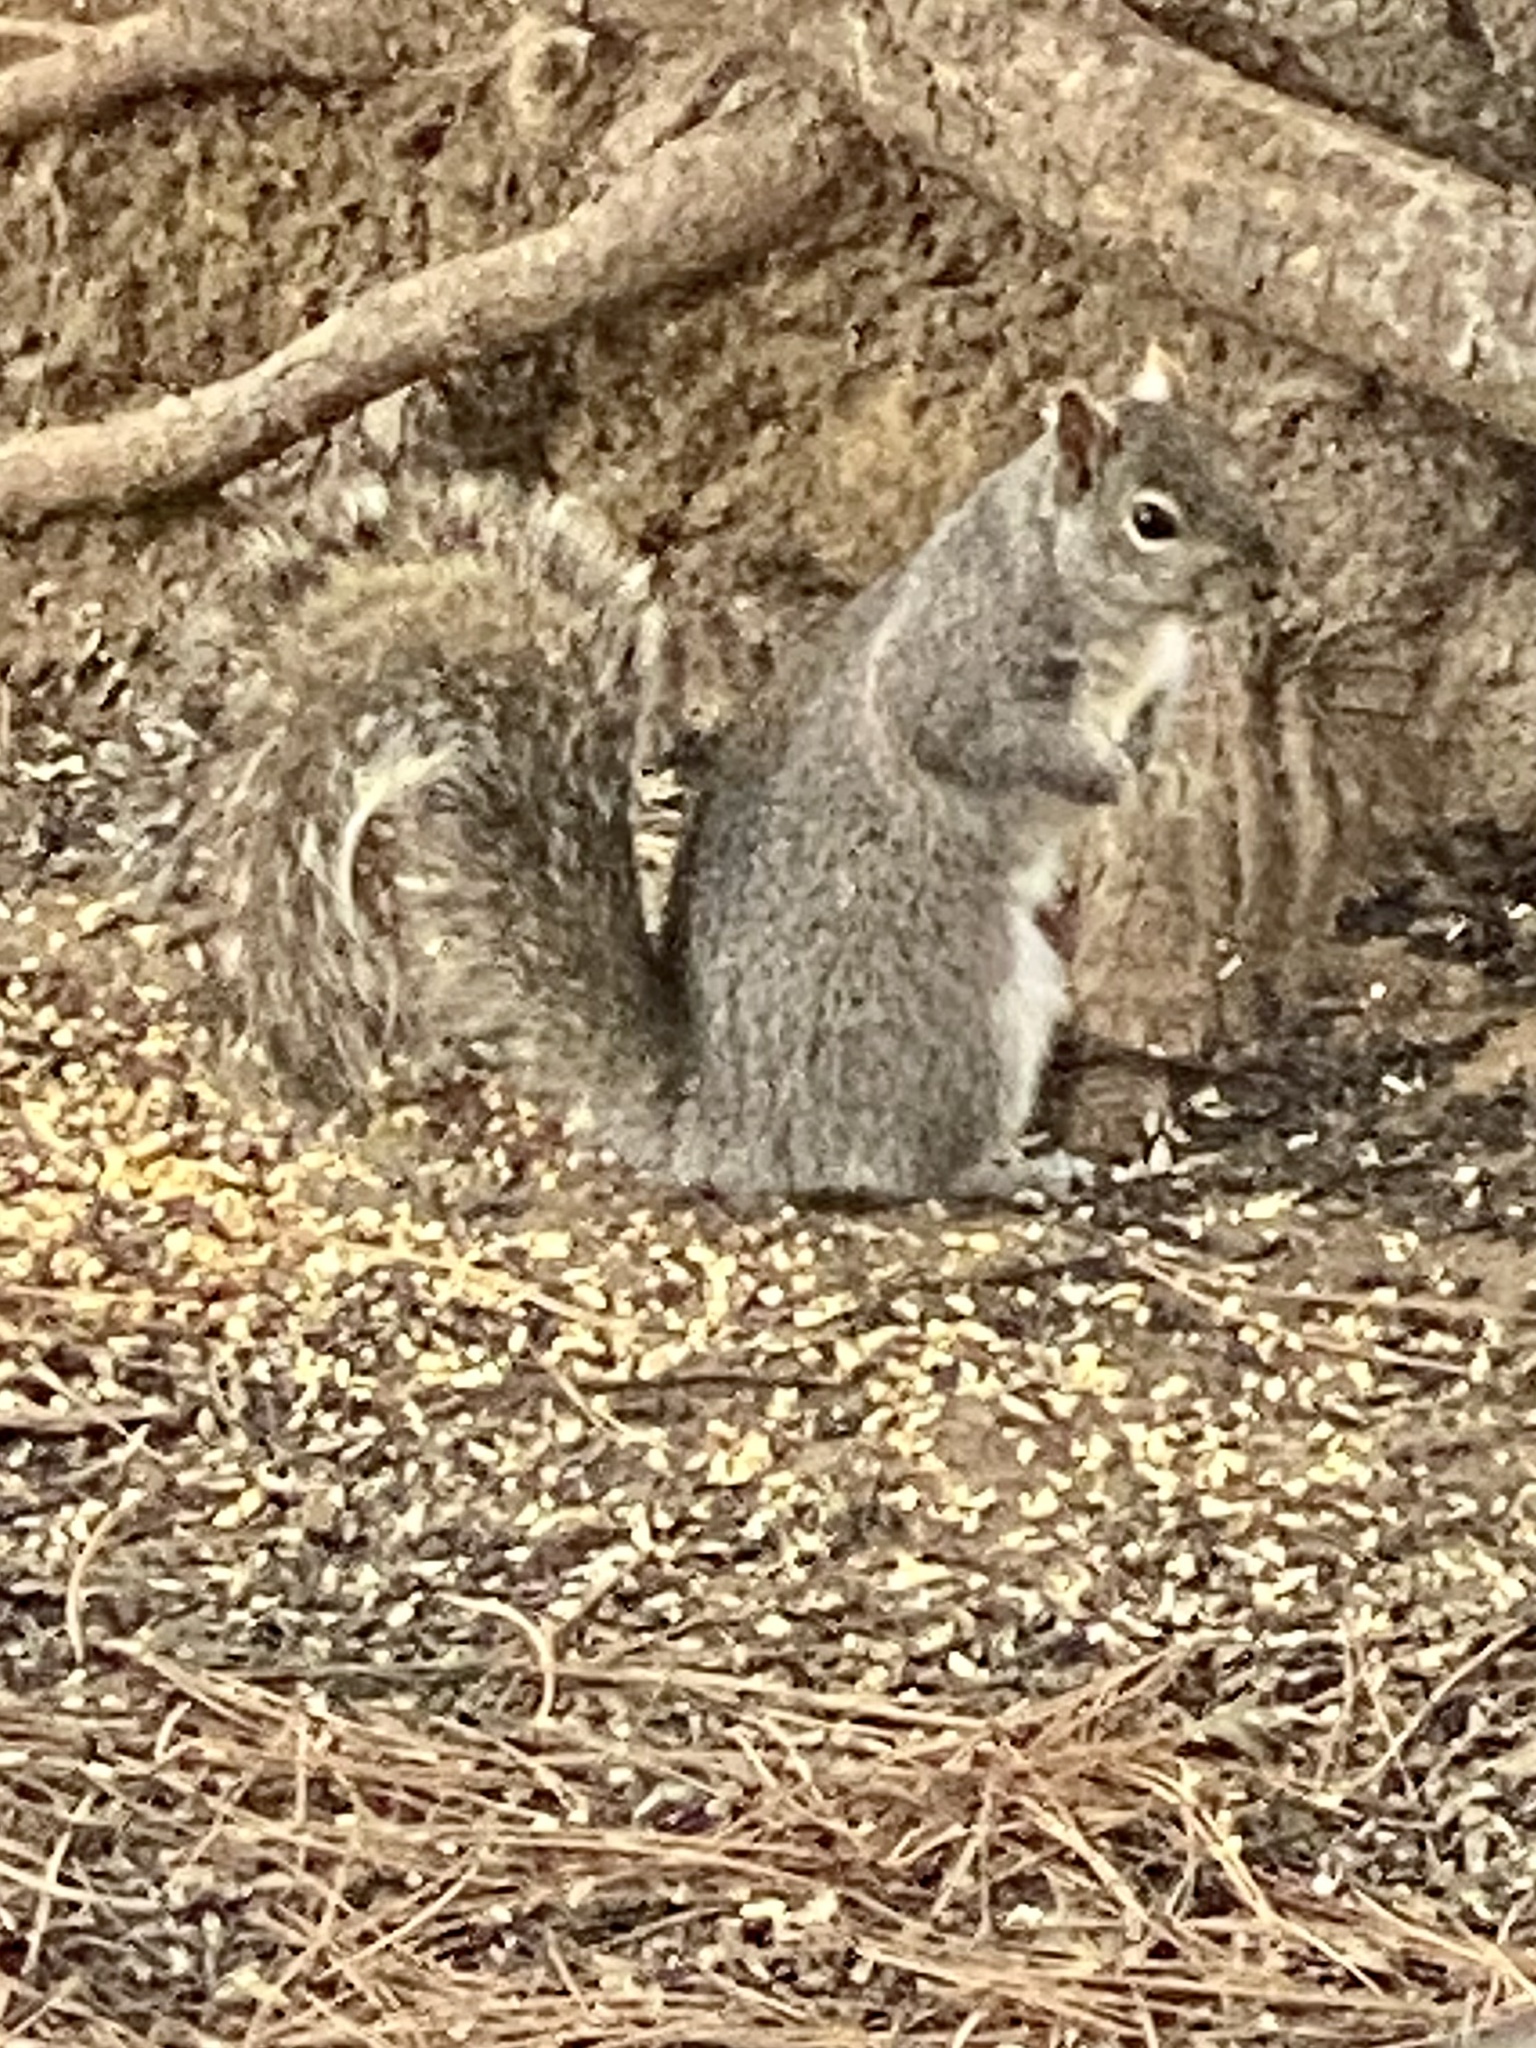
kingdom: Animalia
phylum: Chordata
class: Mammalia
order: Rodentia
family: Sciuridae
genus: Sciurus
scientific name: Sciurus carolinensis
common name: Eastern gray squirrel
